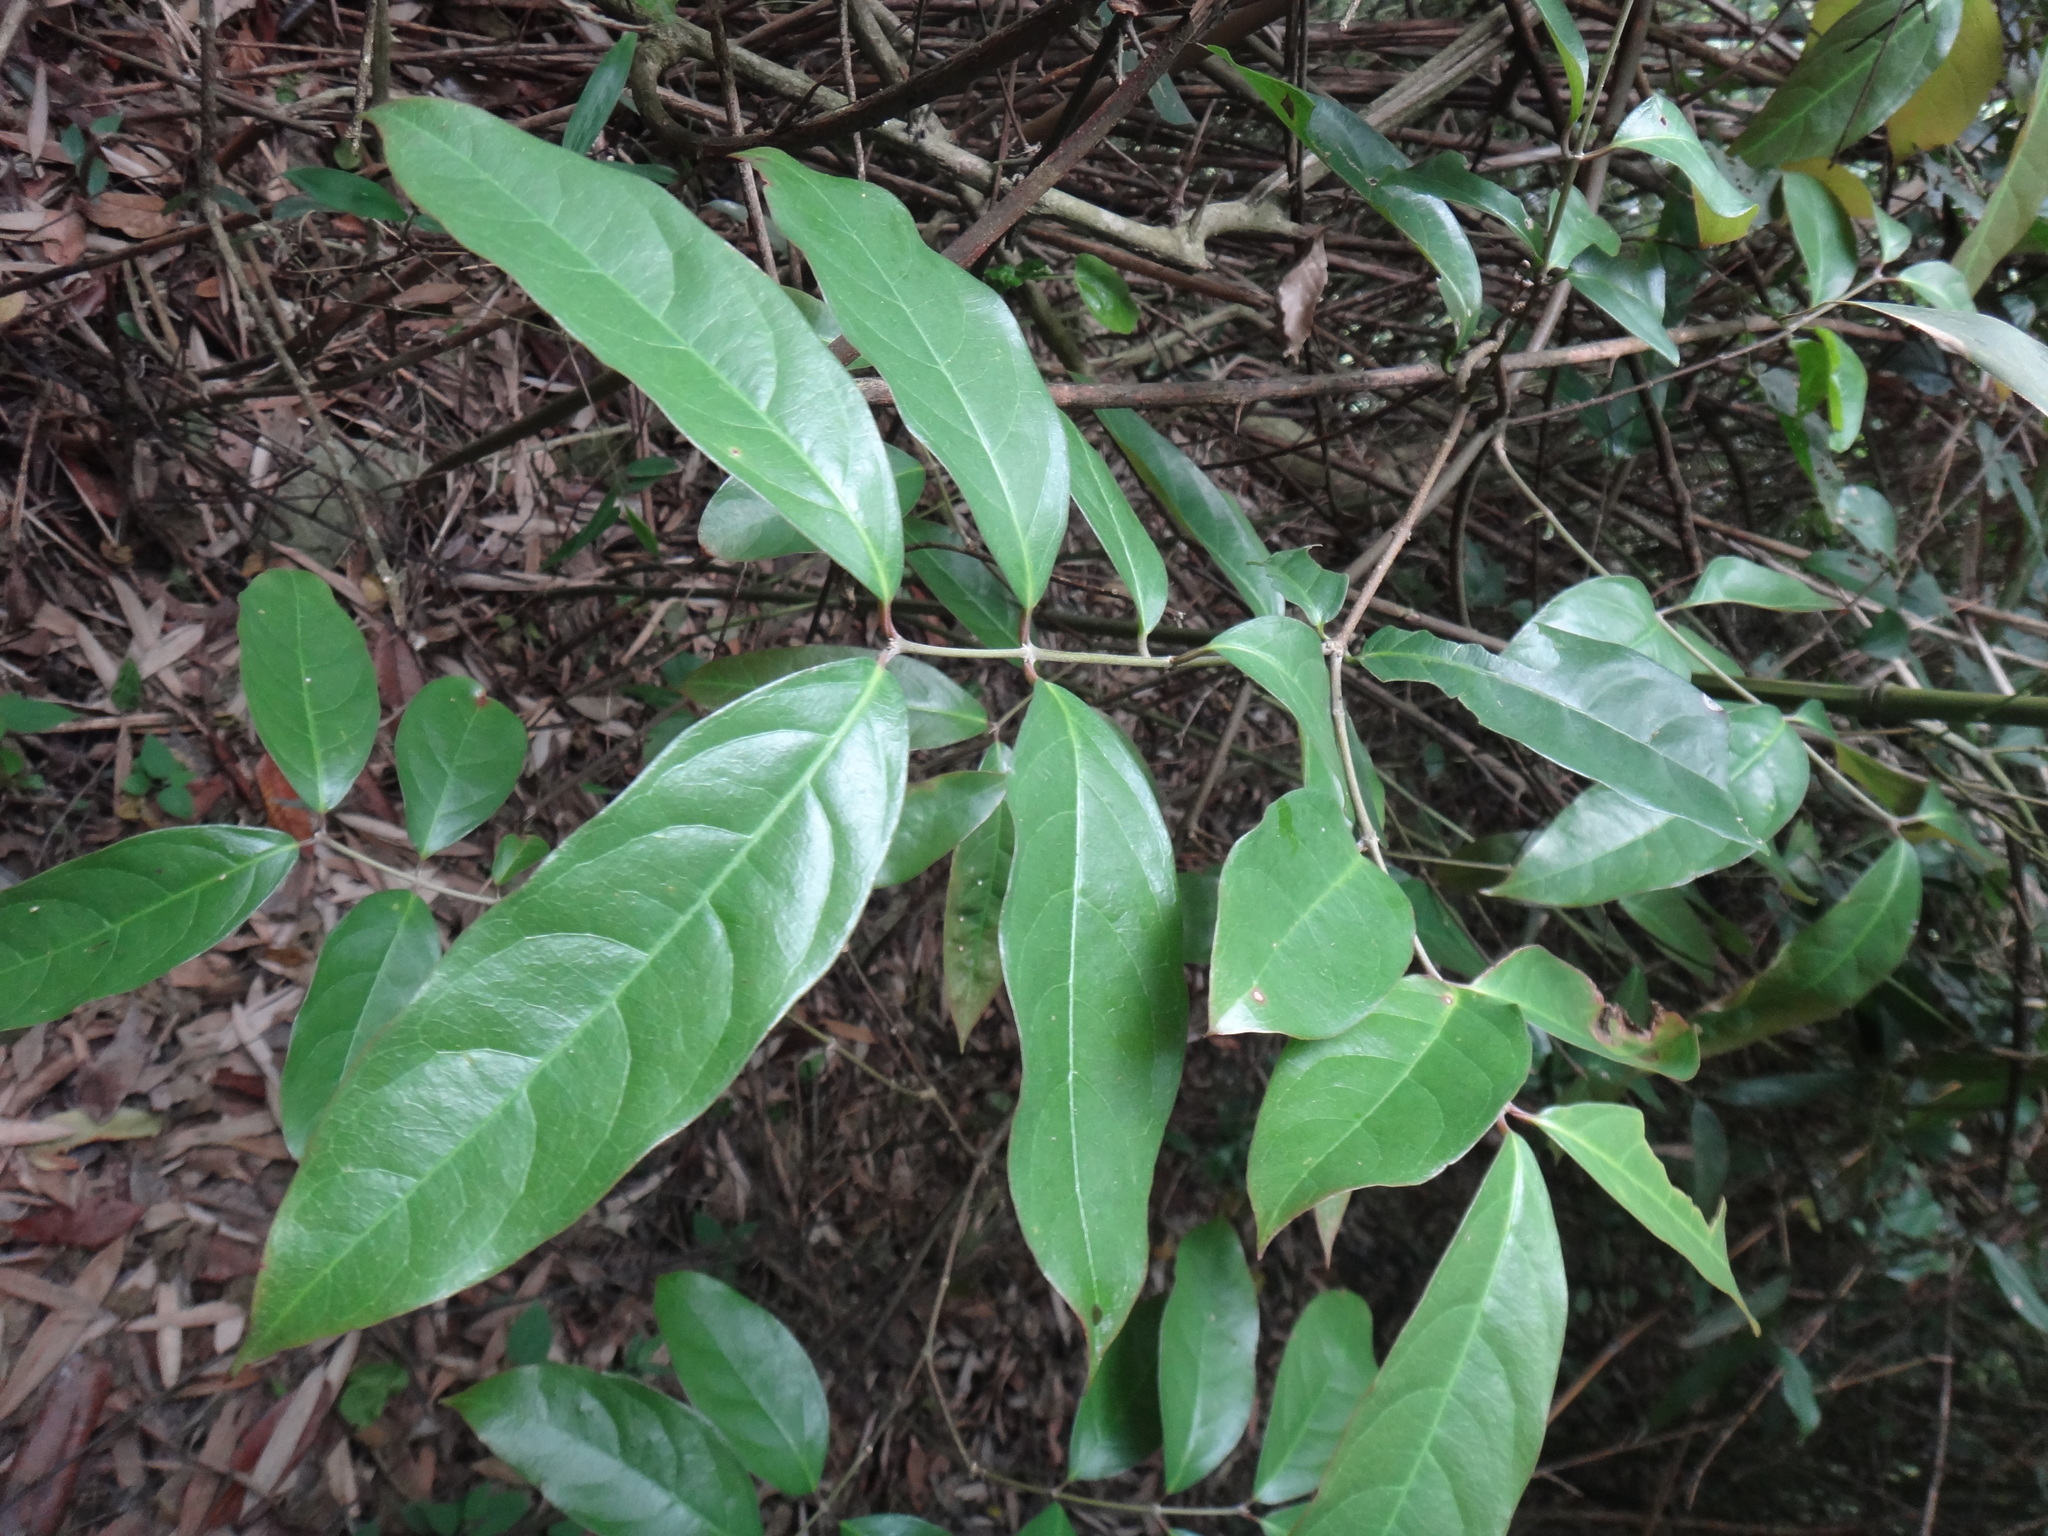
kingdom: Plantae
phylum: Tracheophyta
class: Magnoliopsida
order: Malpighiales
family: Malpighiaceae
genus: Hiptage
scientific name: Hiptage benghalensis
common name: Hiptage
